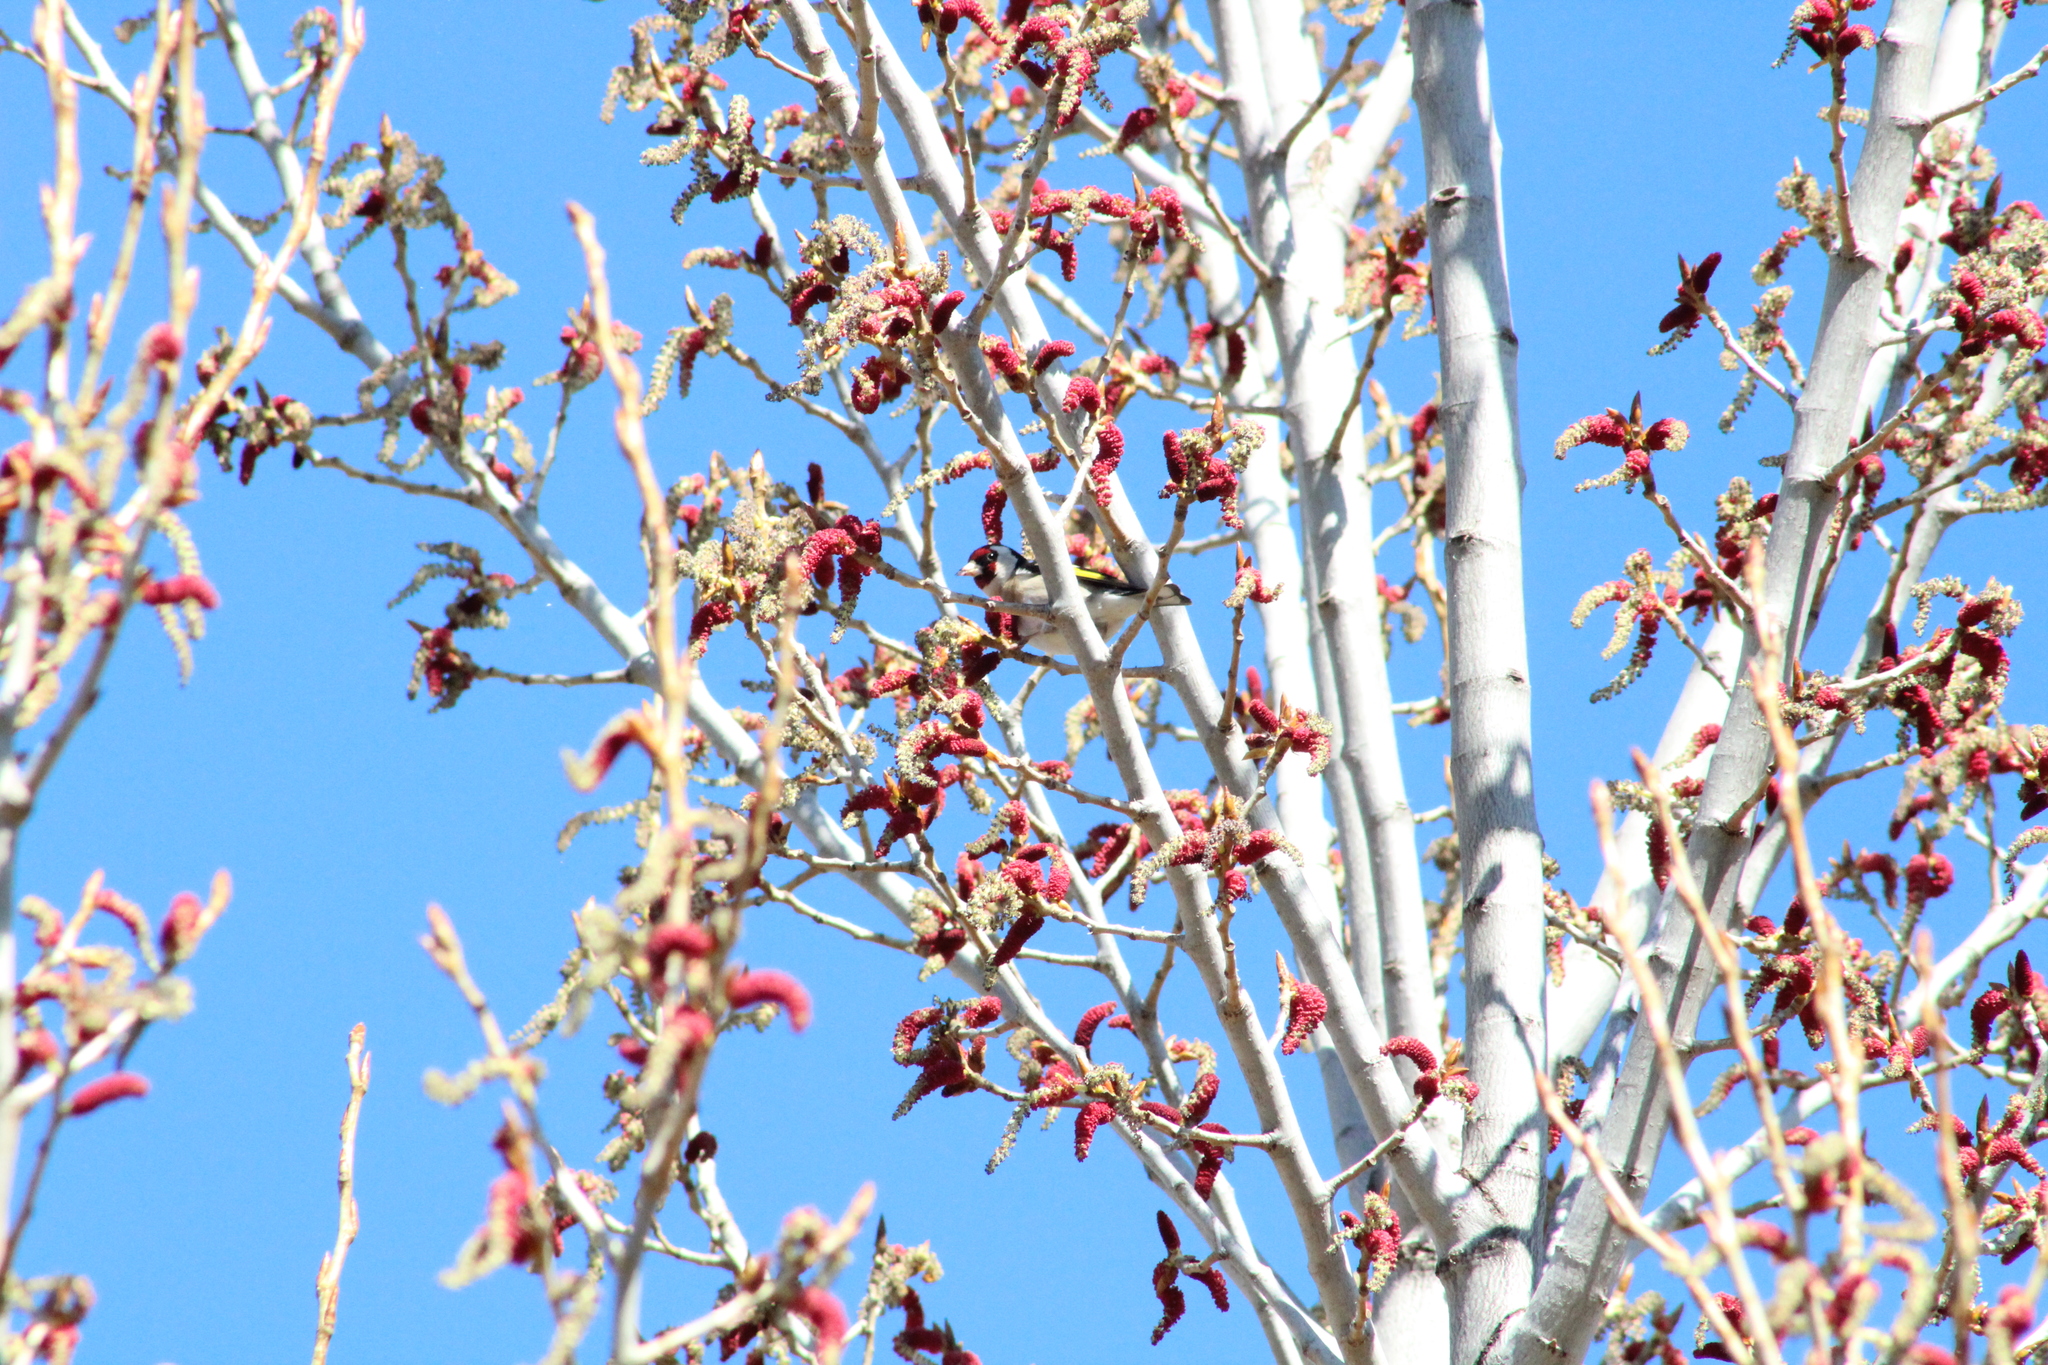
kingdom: Animalia
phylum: Chordata
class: Aves
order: Passeriformes
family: Fringillidae
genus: Carduelis
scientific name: Carduelis carduelis
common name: European goldfinch
